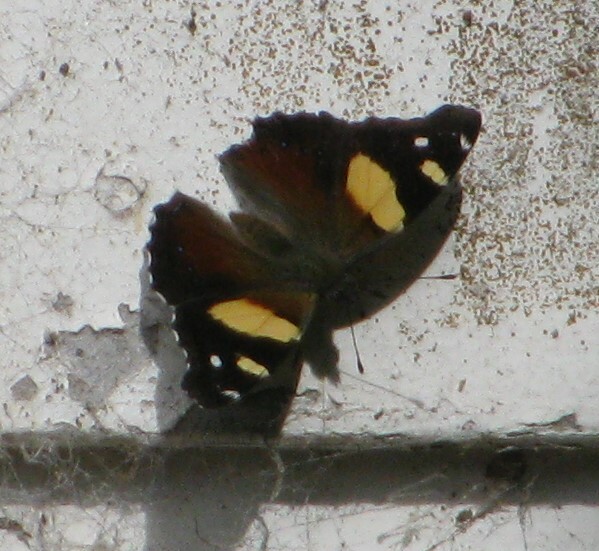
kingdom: Animalia
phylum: Arthropoda
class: Insecta
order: Lepidoptera
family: Nymphalidae
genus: Vanessa
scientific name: Vanessa itea
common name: Yellow admiral
